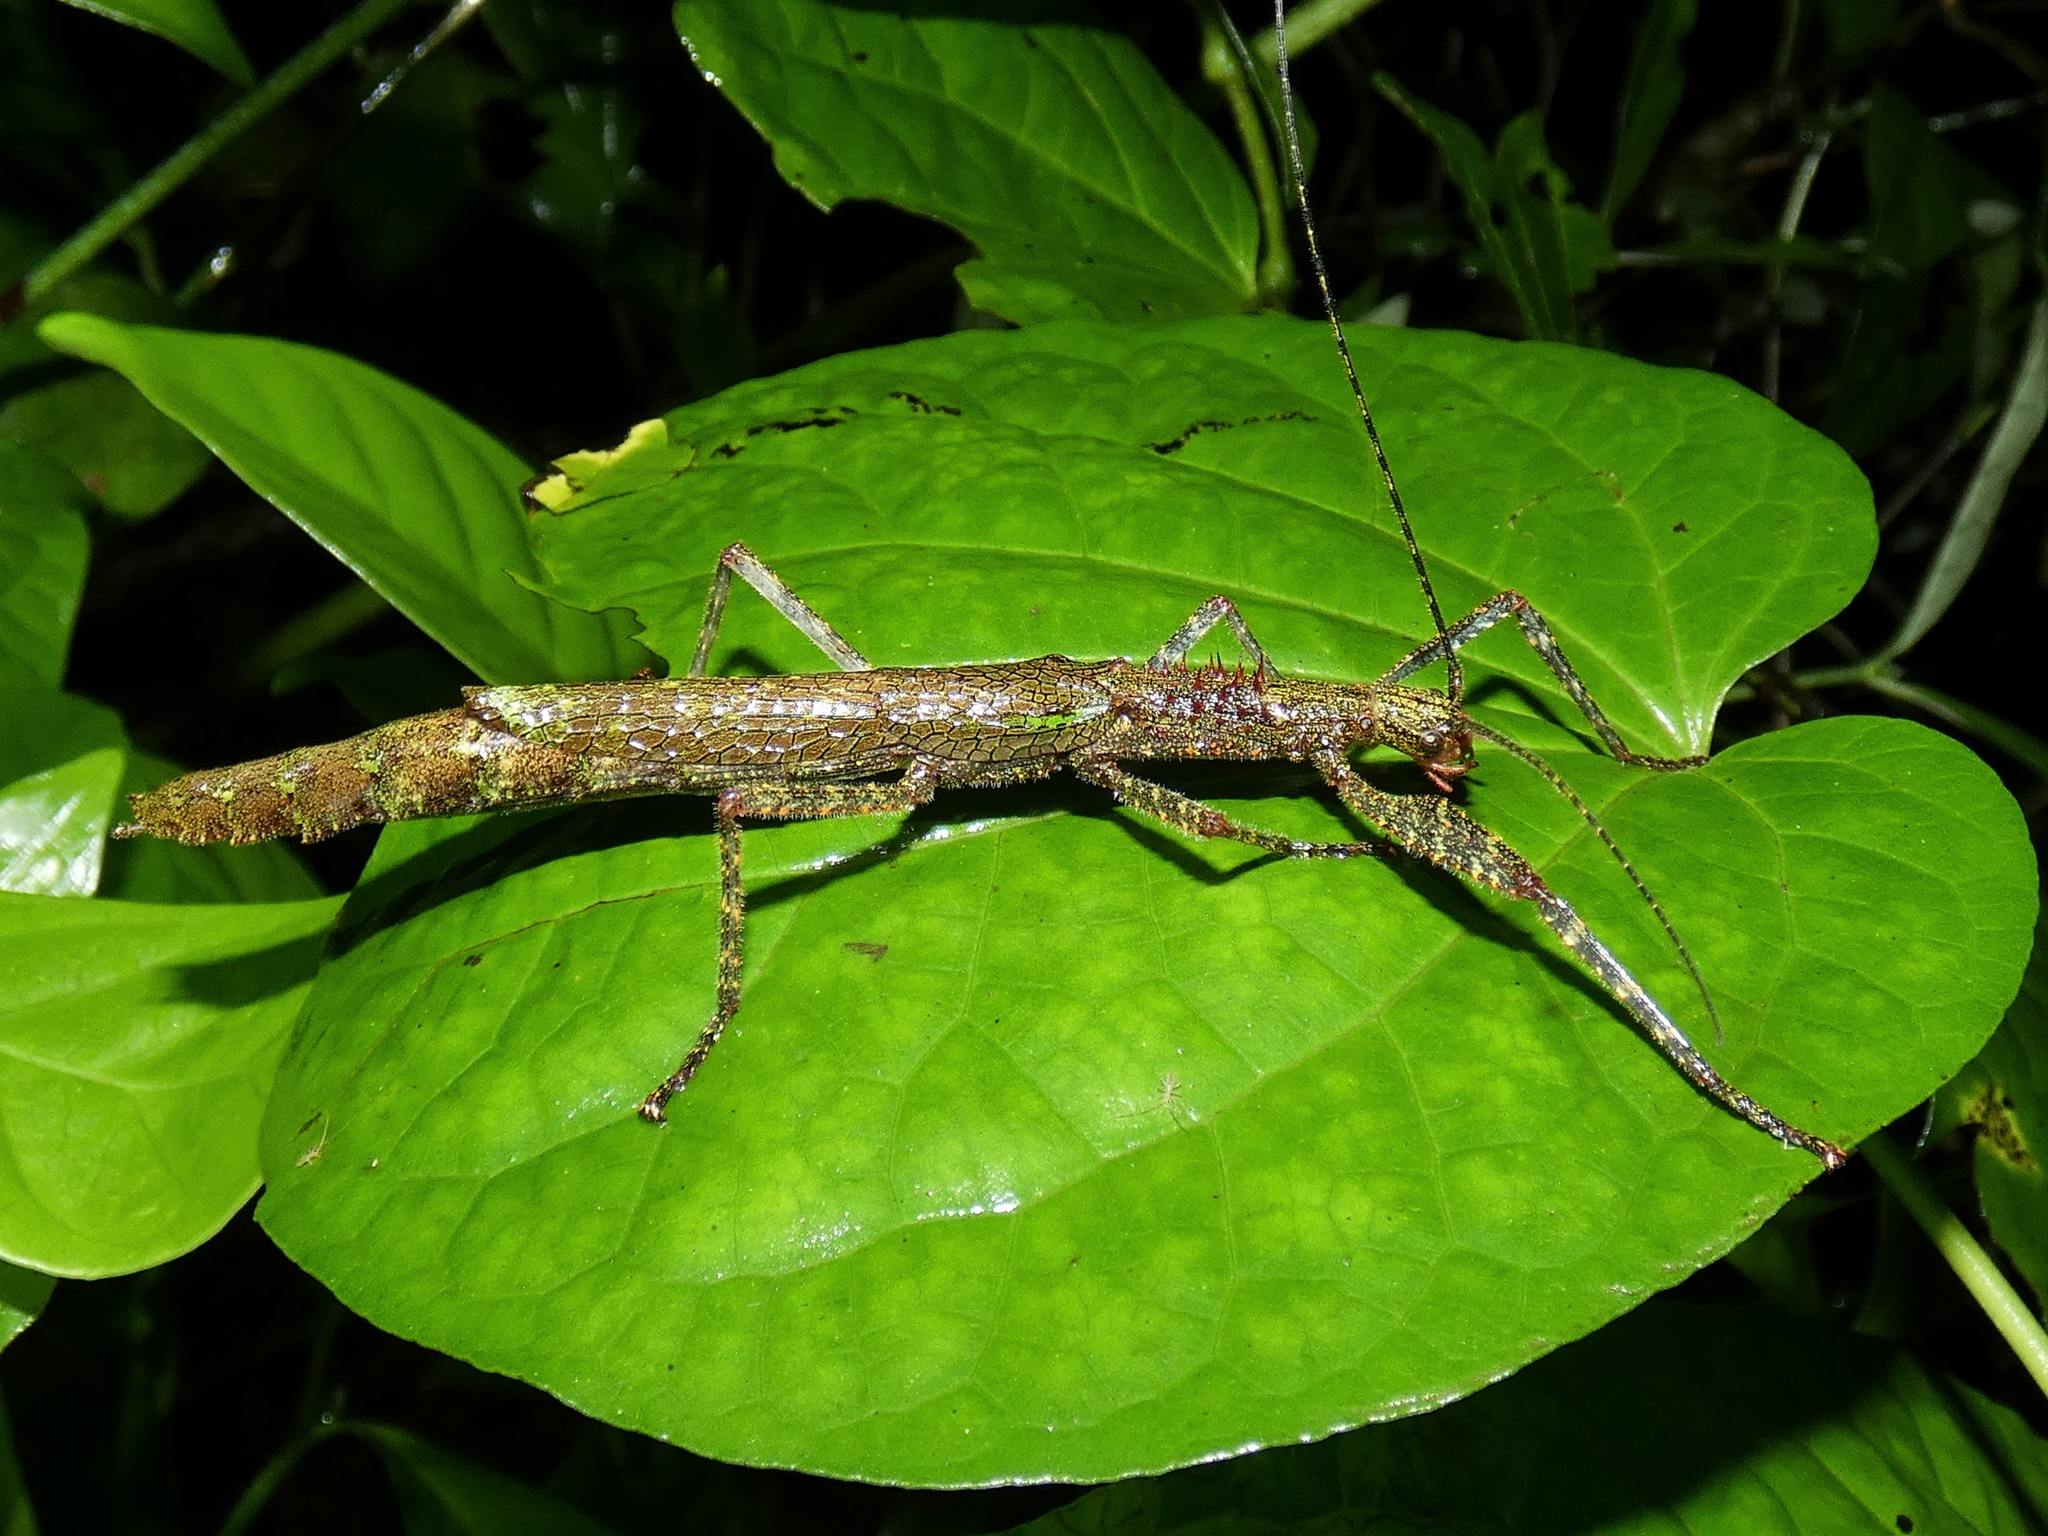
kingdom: Animalia
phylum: Arthropoda
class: Insecta
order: Phasmida
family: Pseudophasmatidae
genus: Metriophasma
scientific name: Metriophasma myrsilus
